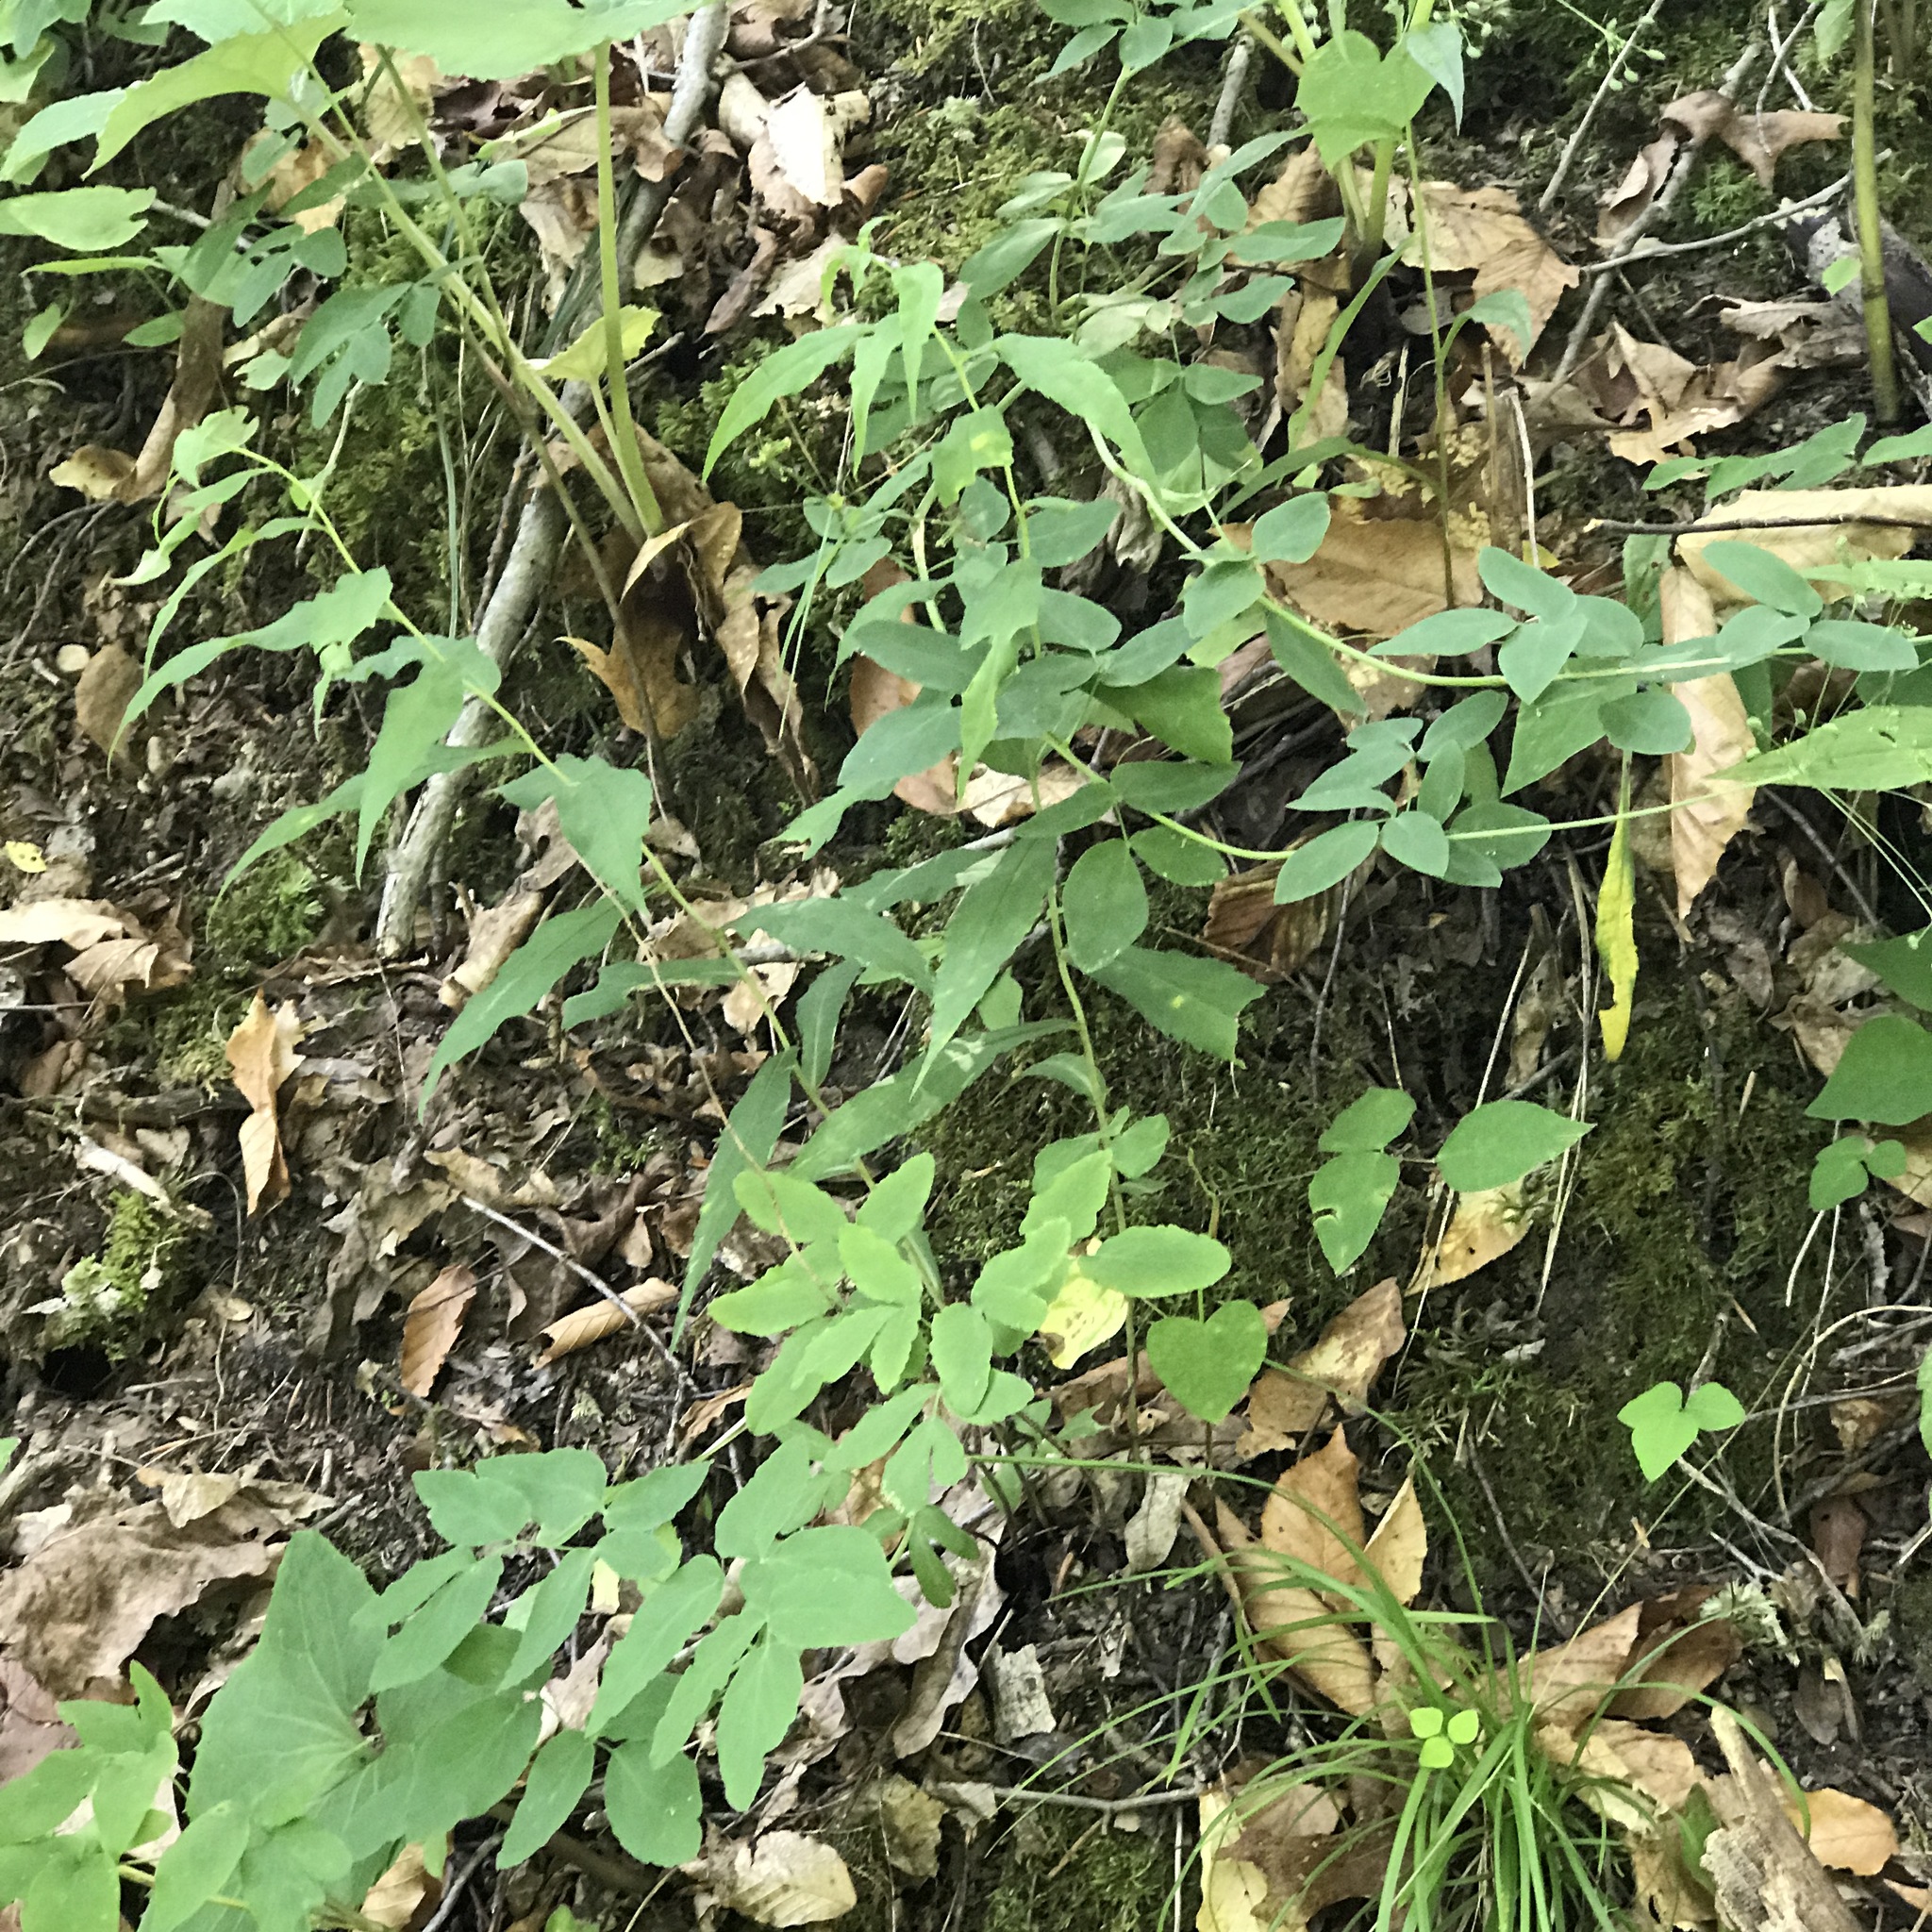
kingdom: Plantae
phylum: Tracheophyta
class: Magnoliopsida
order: Apiales
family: Apiaceae
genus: Taenidia
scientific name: Taenidia integerrima
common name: Golden alexander
